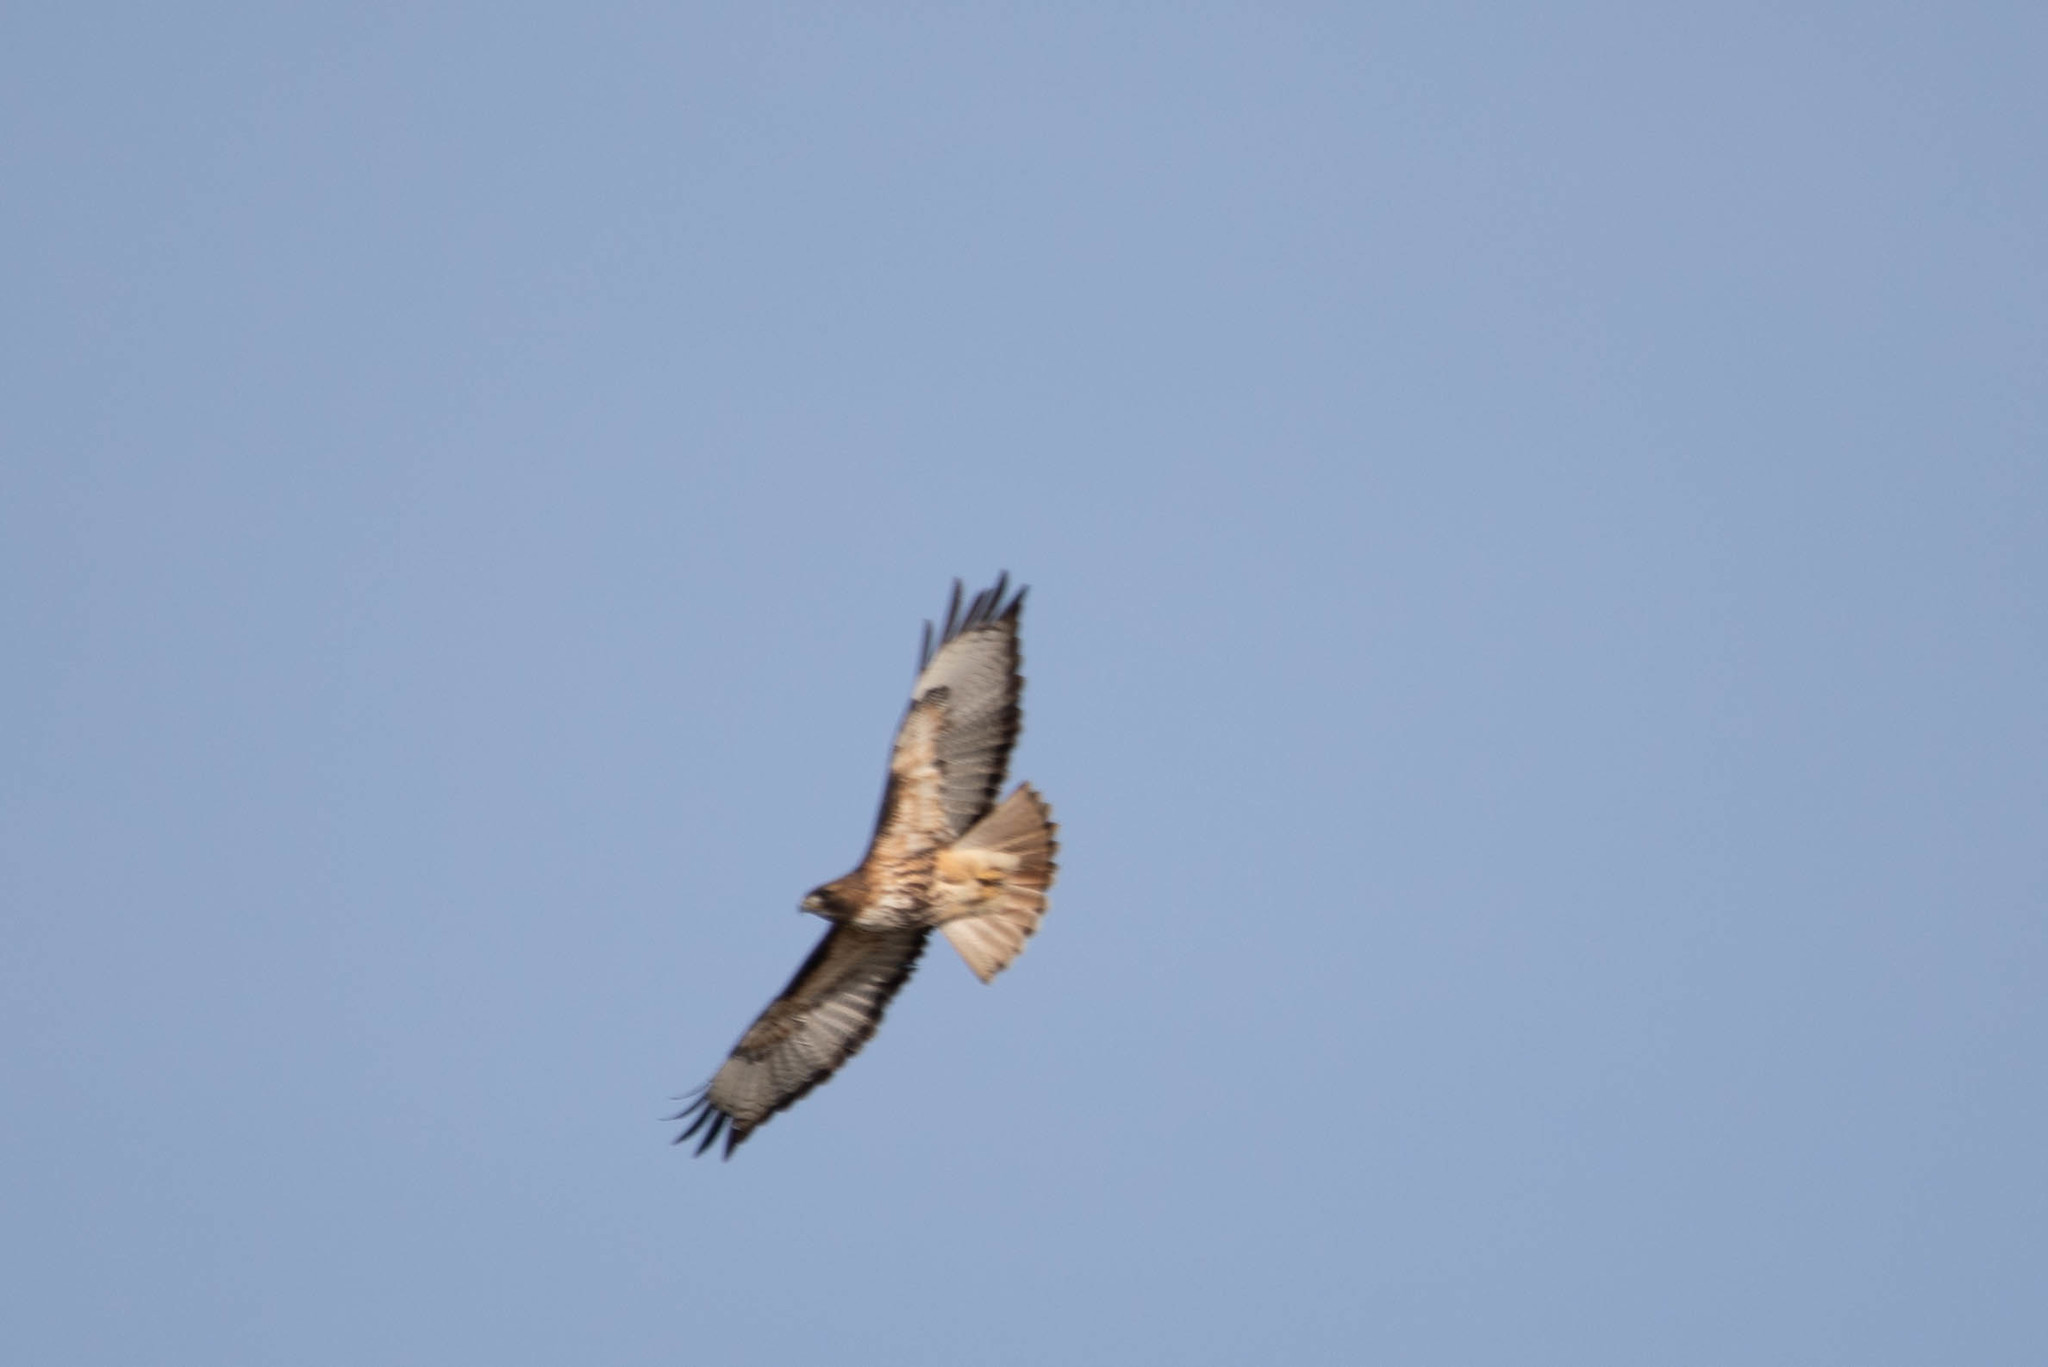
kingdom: Animalia
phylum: Chordata
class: Aves
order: Accipitriformes
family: Accipitridae
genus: Buteo
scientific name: Buteo jamaicensis
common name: Red-tailed hawk
